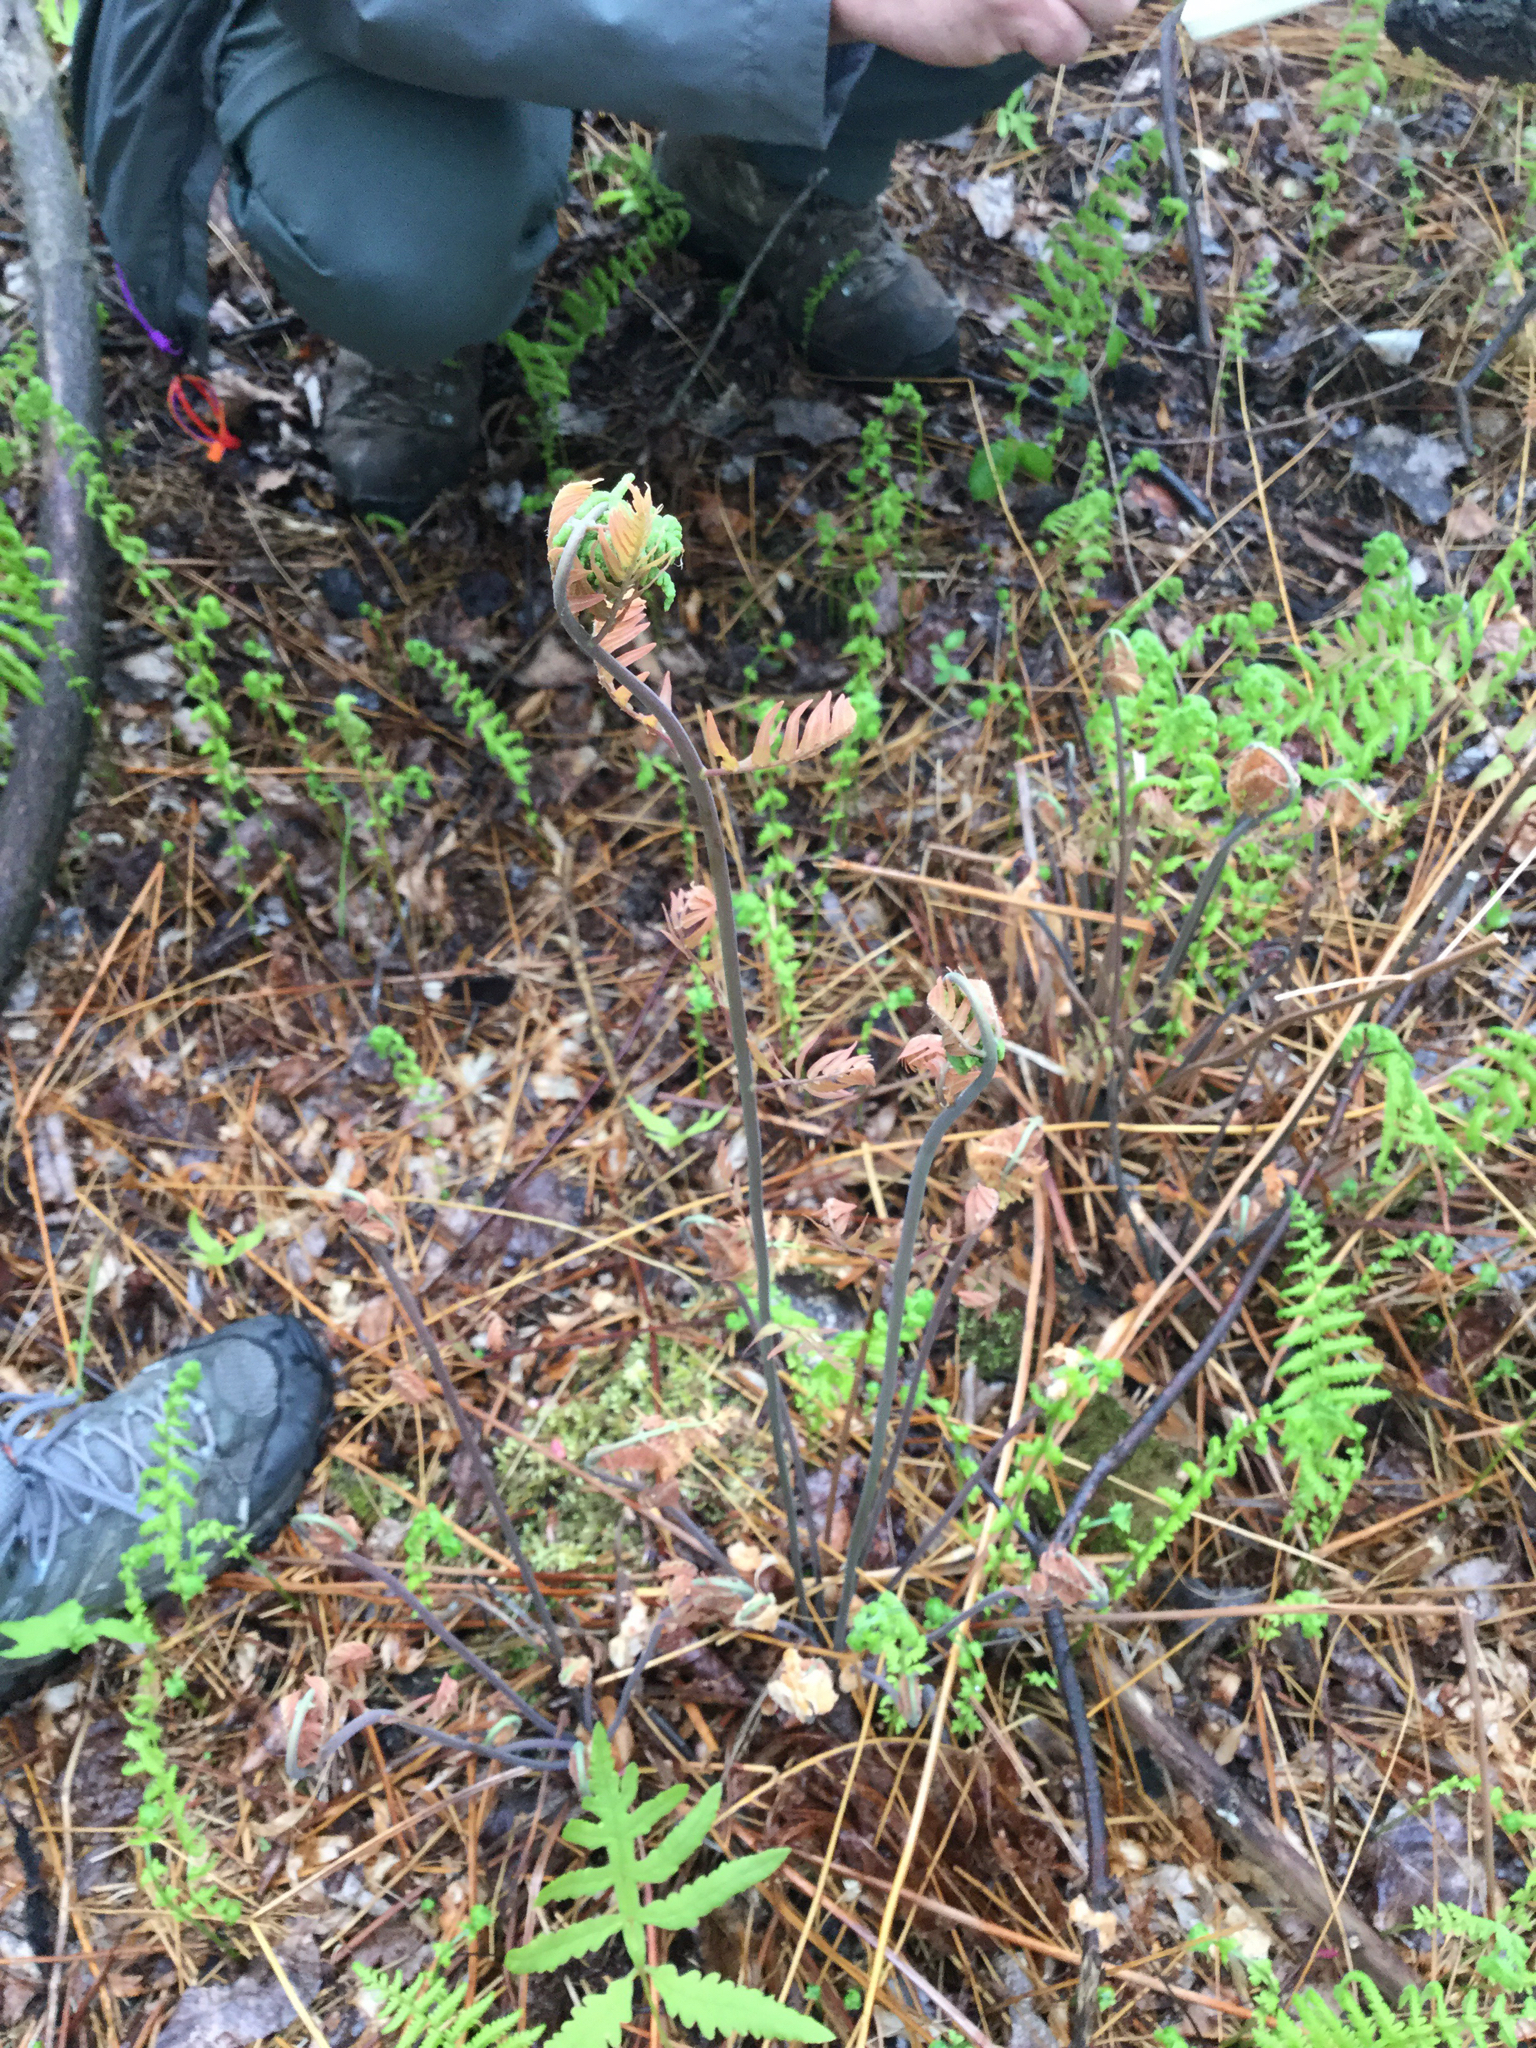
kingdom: Plantae
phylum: Tracheophyta
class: Polypodiopsida
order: Osmundales
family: Osmundaceae
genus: Osmunda
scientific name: Osmunda spectabilis
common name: American royal fern
